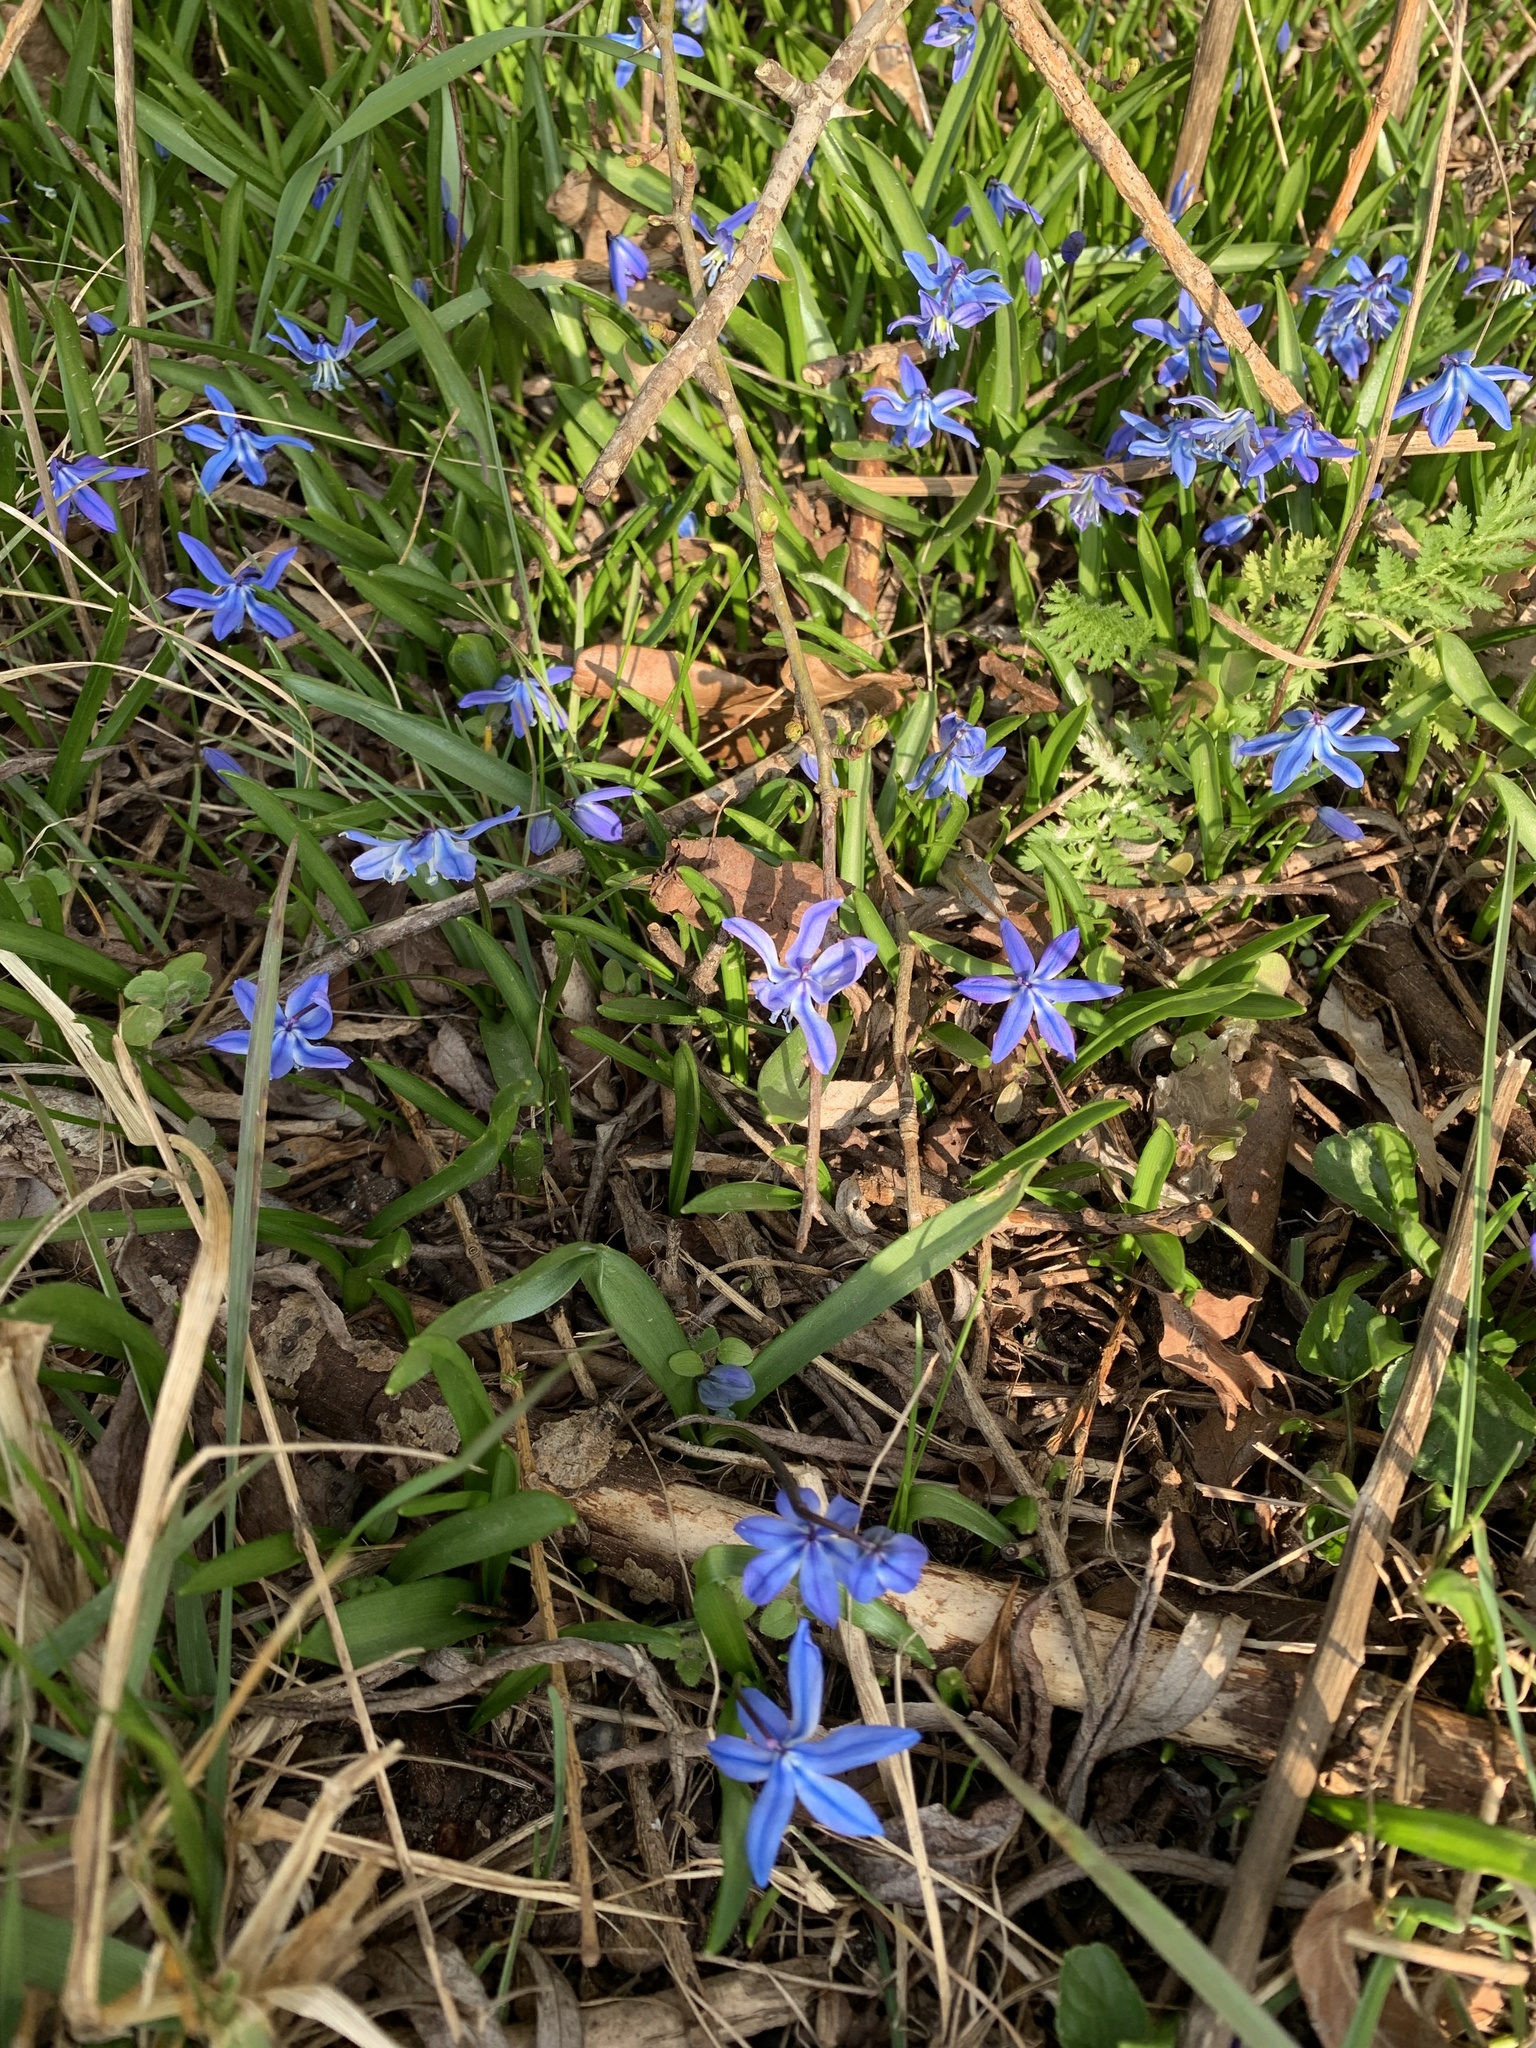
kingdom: Plantae
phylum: Tracheophyta
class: Liliopsida
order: Asparagales
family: Asparagaceae
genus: Scilla
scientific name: Scilla siberica
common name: Siberian squill
